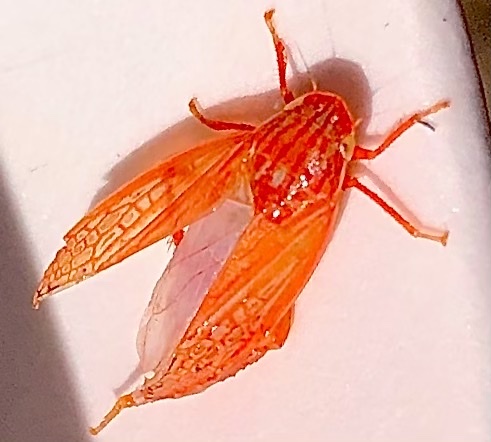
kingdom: Animalia
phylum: Arthropoda
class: Insecta
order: Hemiptera
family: Cicadellidae
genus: Gyponana
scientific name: Gyponana gladia
